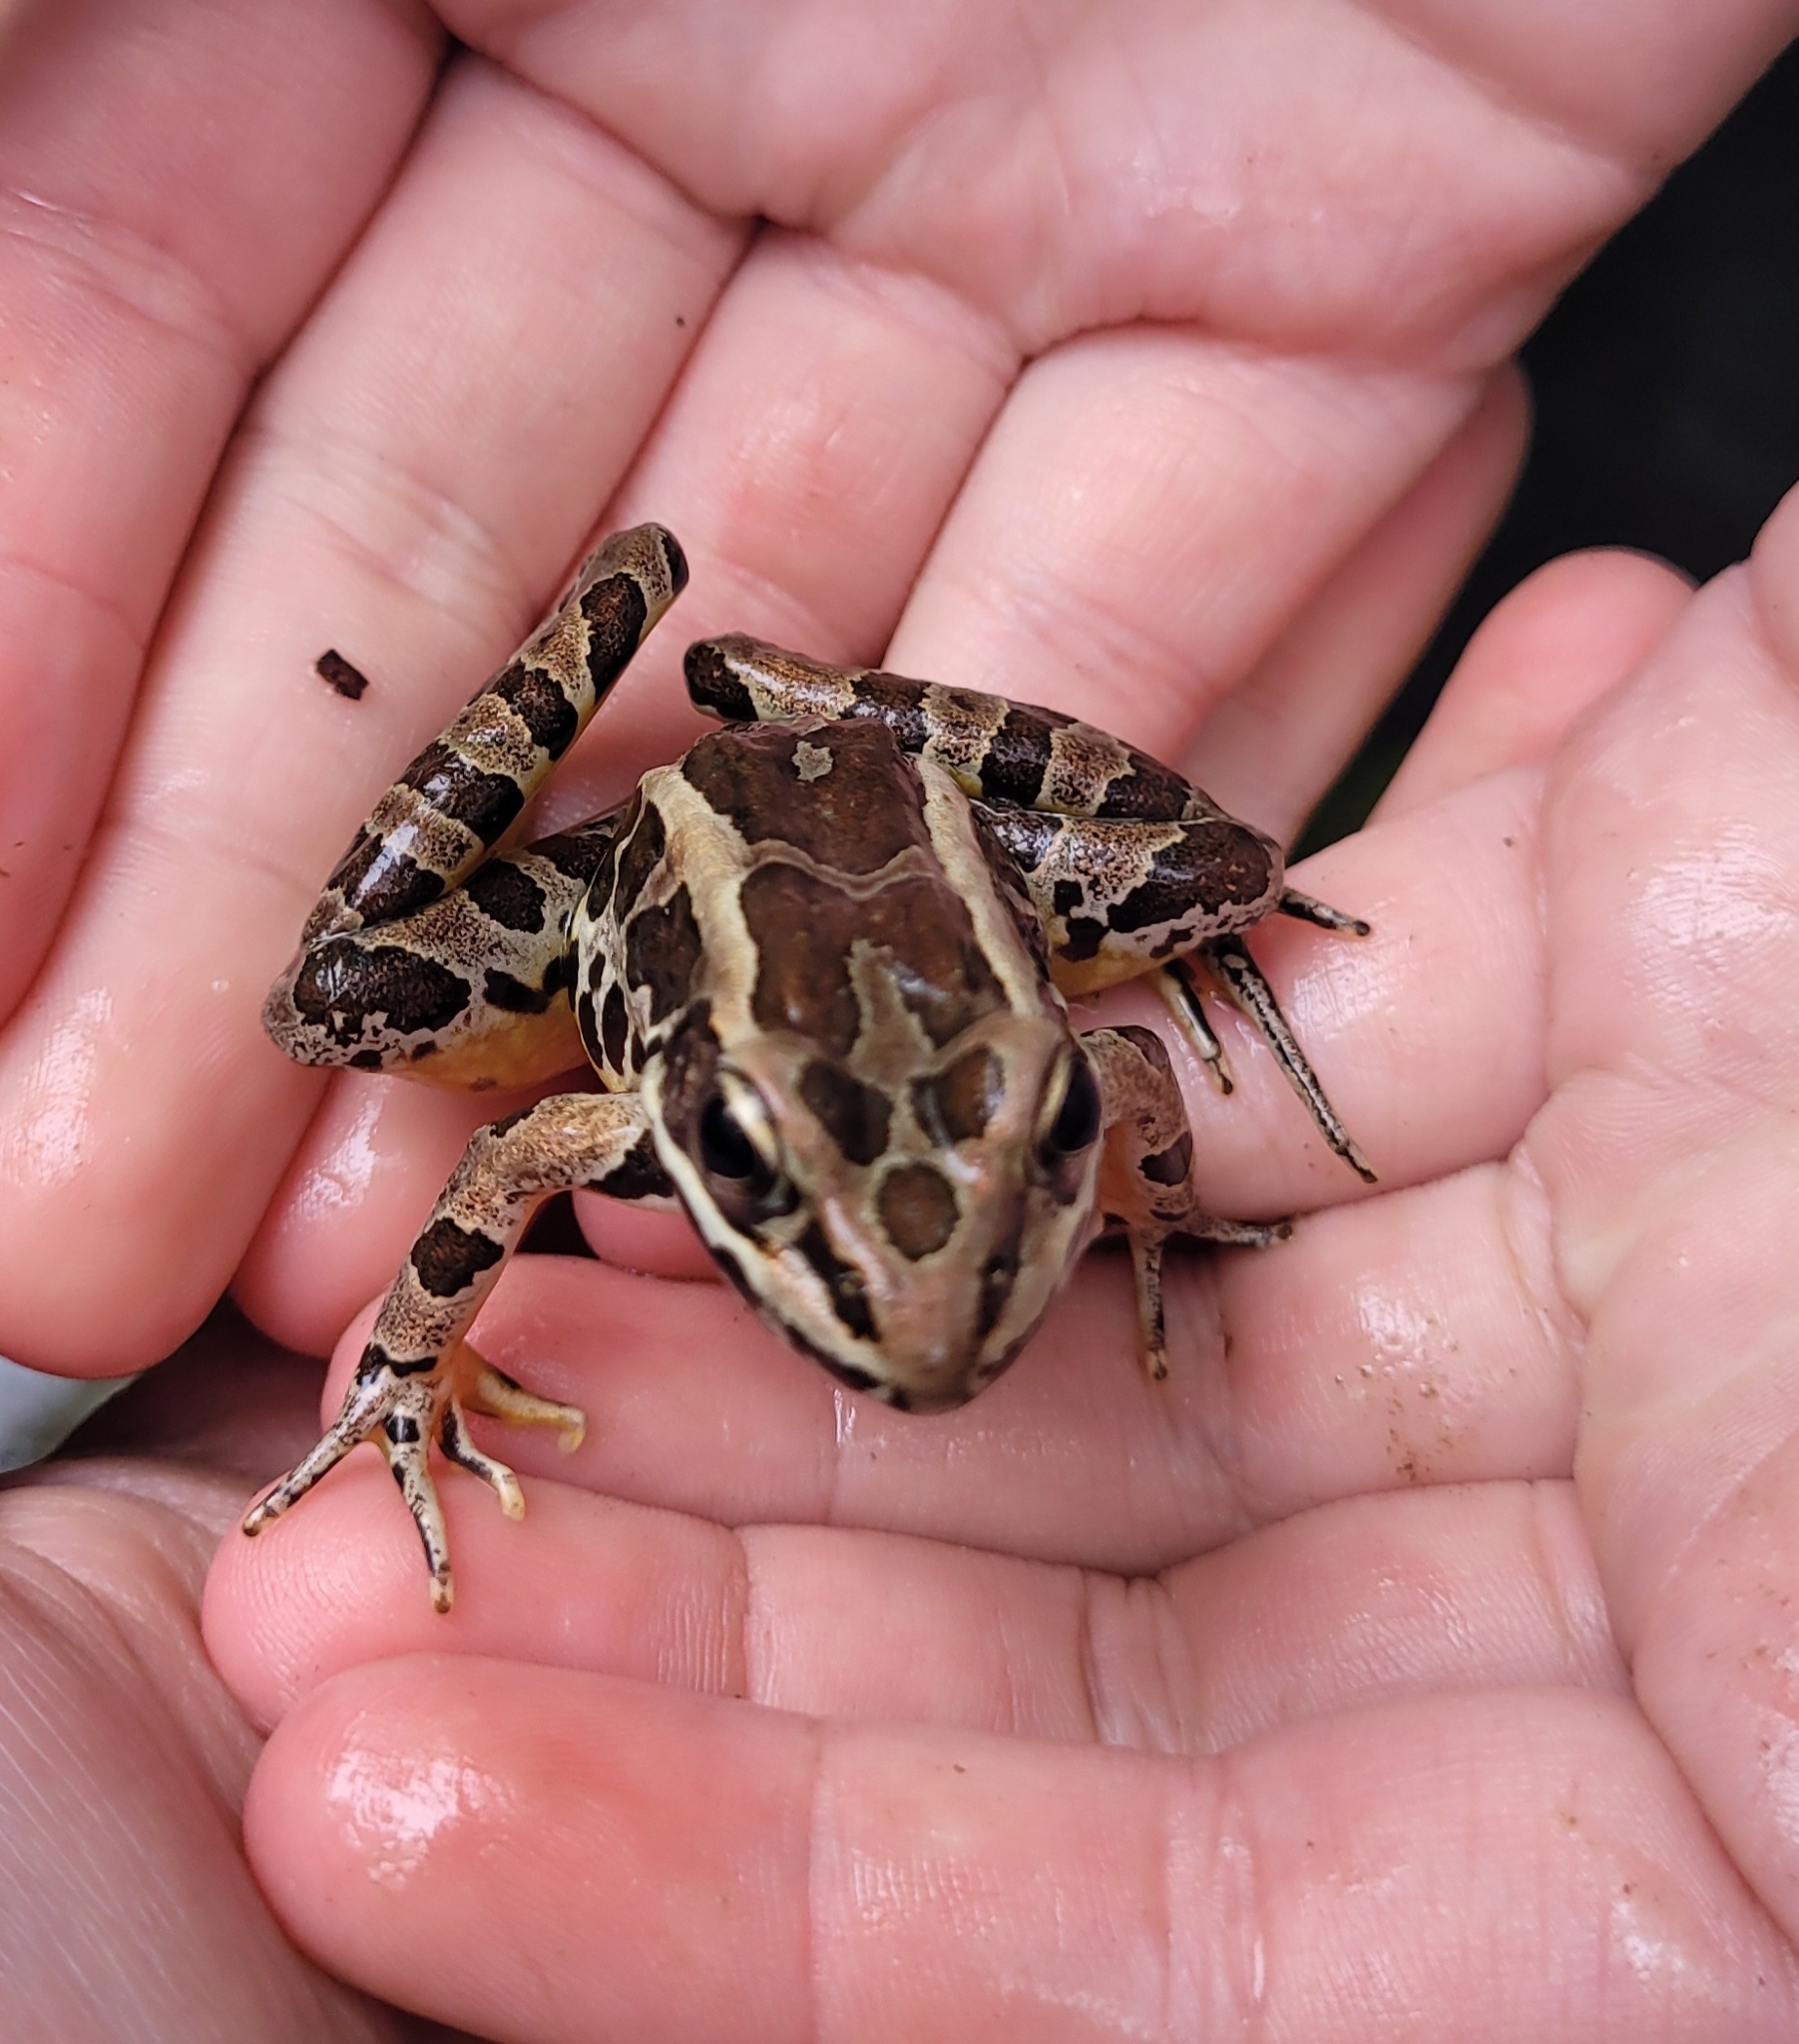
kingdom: Animalia
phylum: Chordata
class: Amphibia
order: Anura
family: Ranidae
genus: Lithobates
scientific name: Lithobates palustris
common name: Pickerel frog
